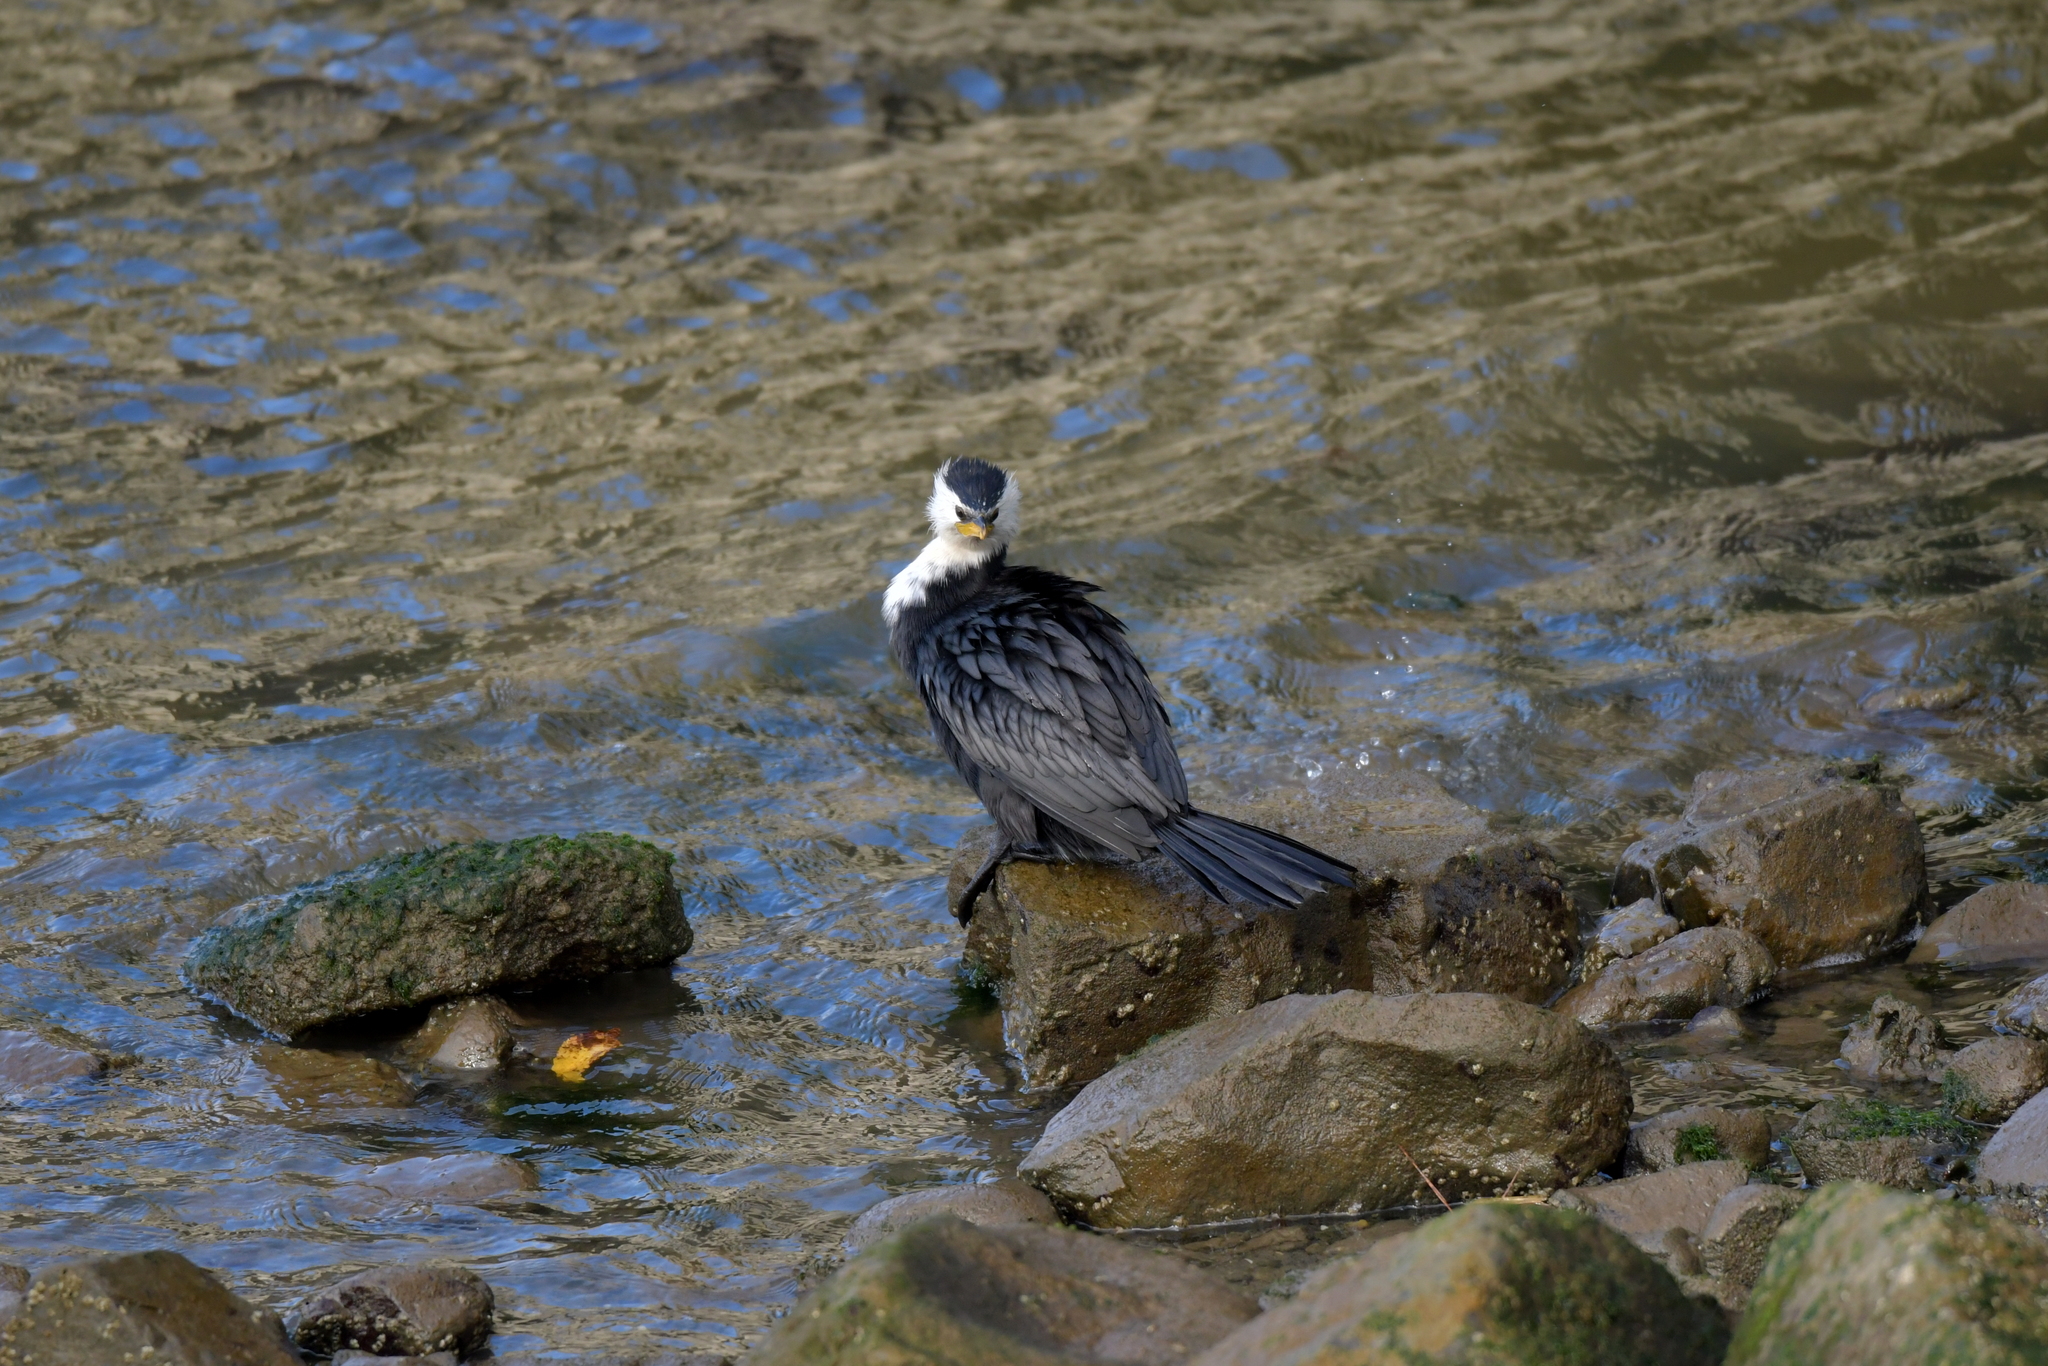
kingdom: Animalia
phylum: Chordata
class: Aves
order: Suliformes
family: Phalacrocoracidae
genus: Microcarbo
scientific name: Microcarbo melanoleucos
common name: Little pied cormorant
